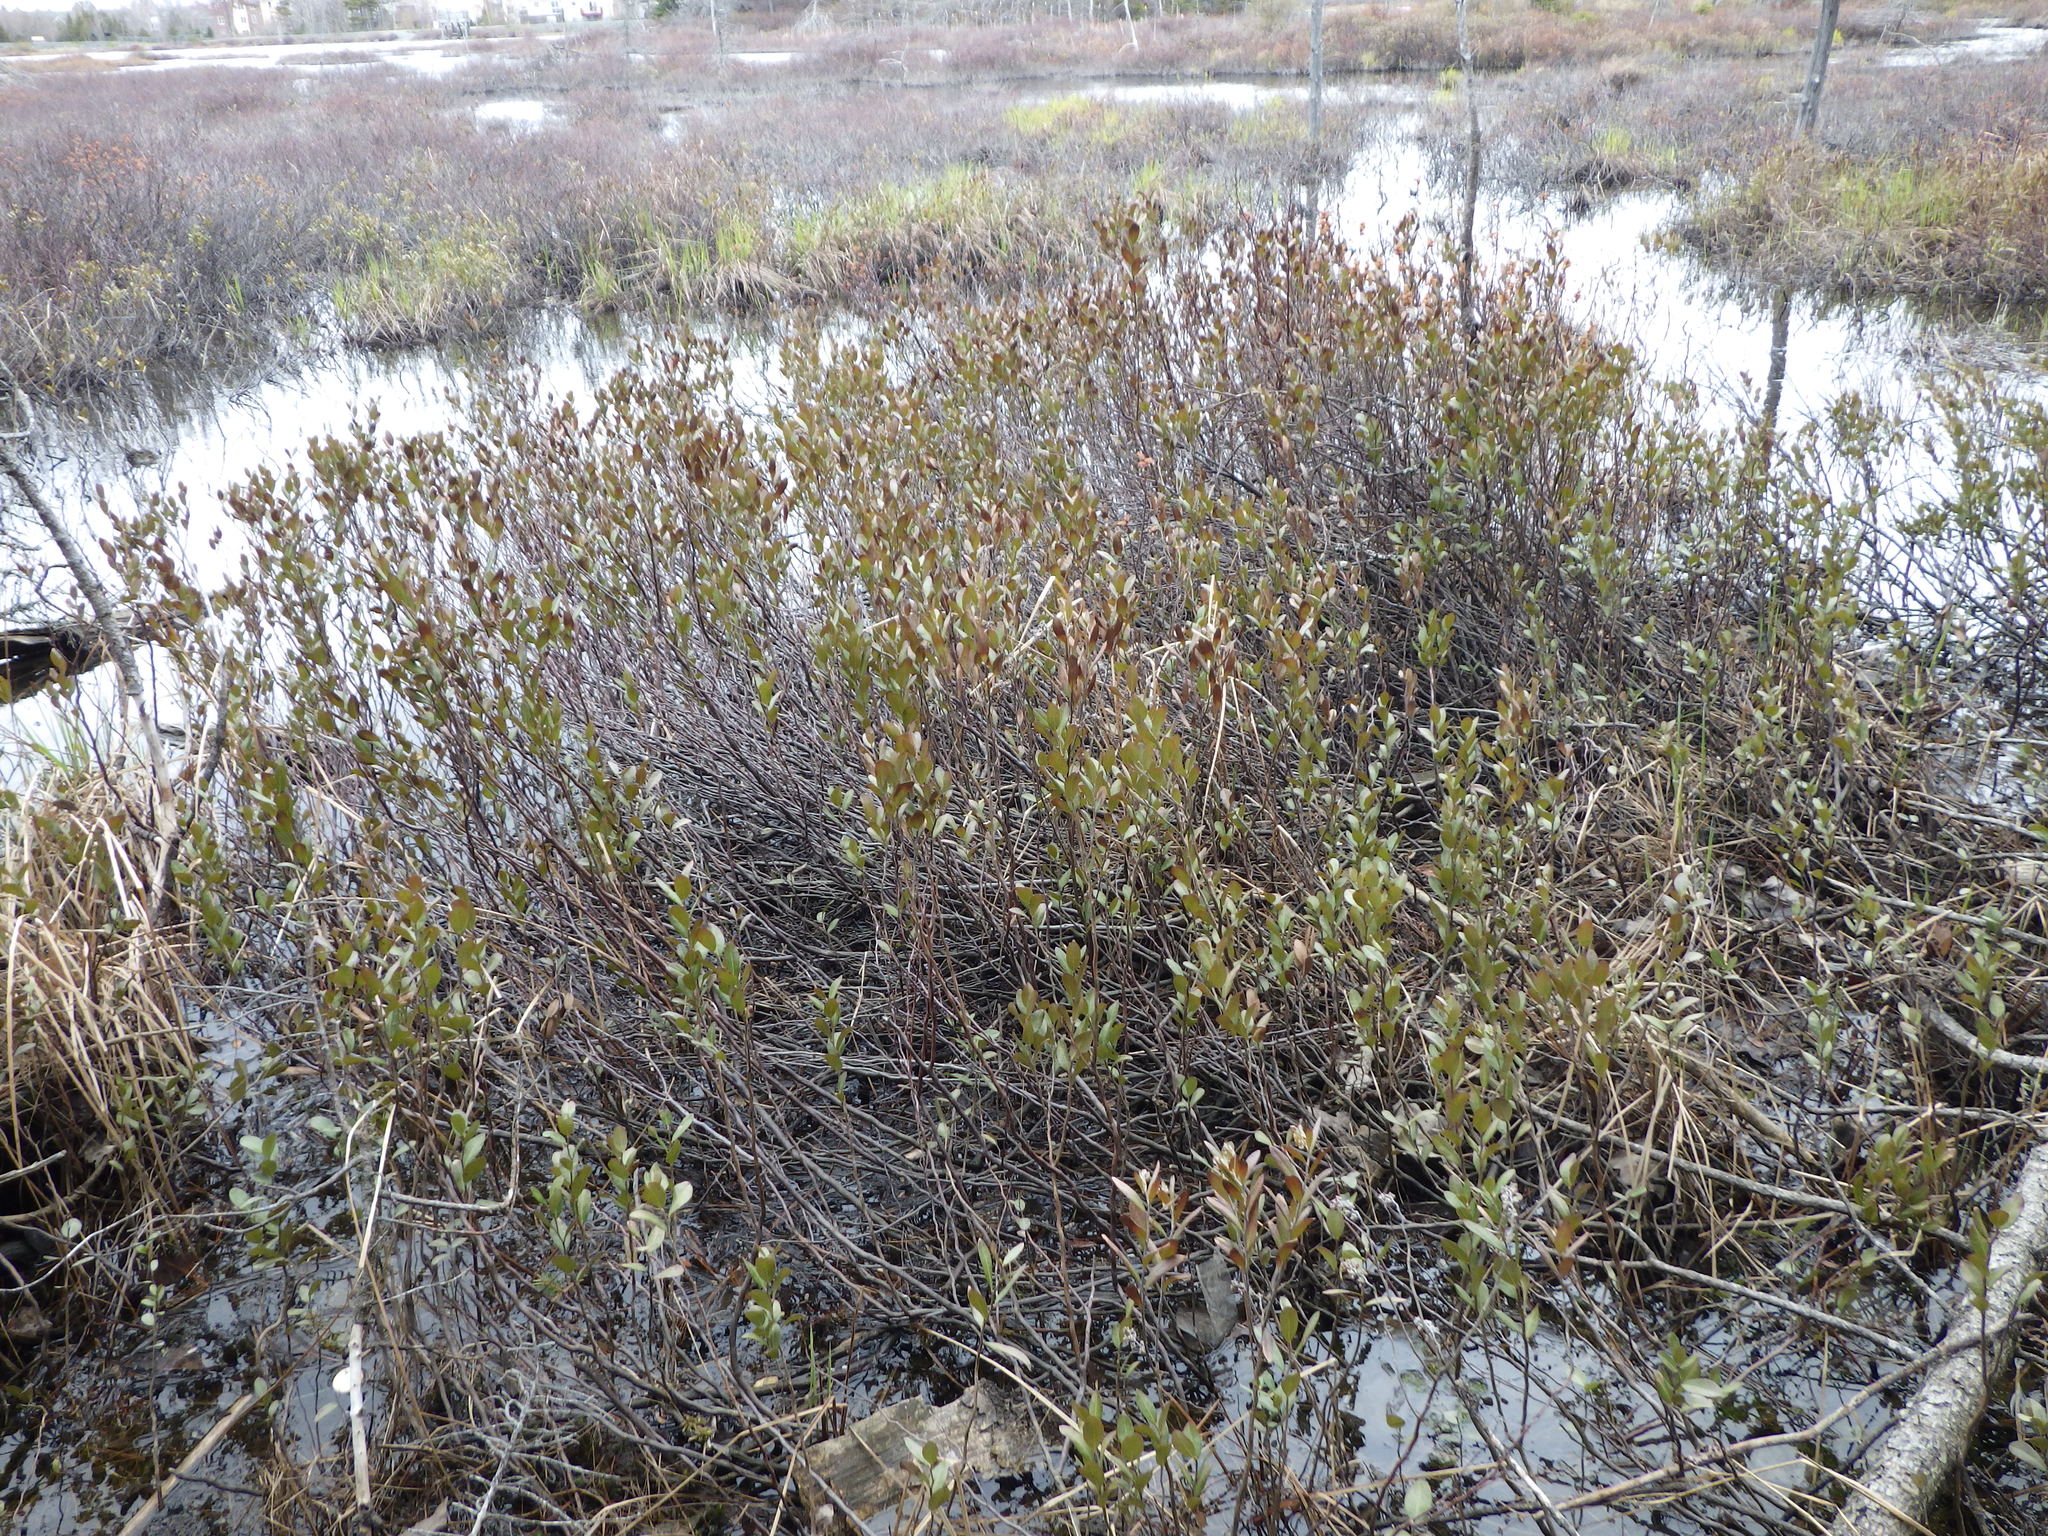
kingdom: Plantae
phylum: Tracheophyta
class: Magnoliopsida
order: Fagales
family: Myricaceae
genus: Myrica
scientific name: Myrica gale
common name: Sweet gale
